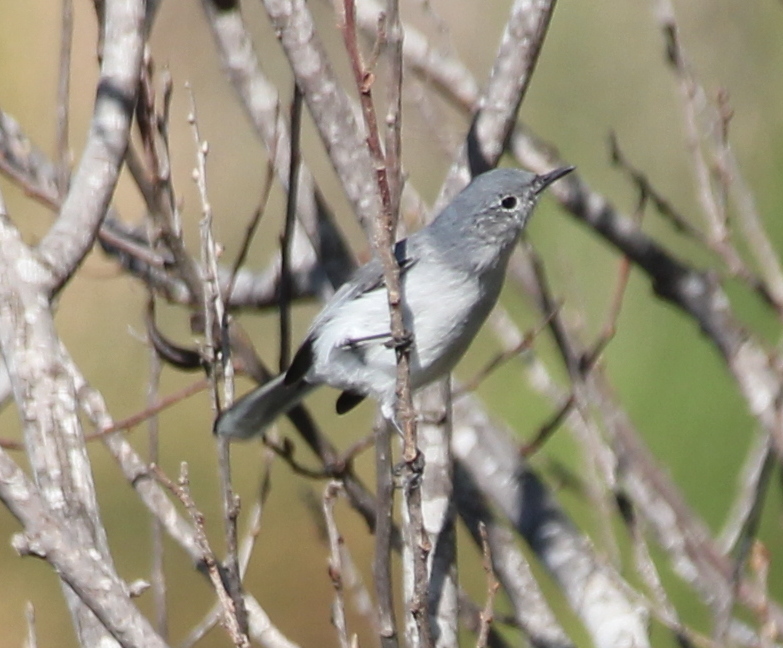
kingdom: Animalia
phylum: Chordata
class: Aves
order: Passeriformes
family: Polioptilidae
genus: Polioptila
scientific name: Polioptila caerulea
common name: Blue-gray gnatcatcher
